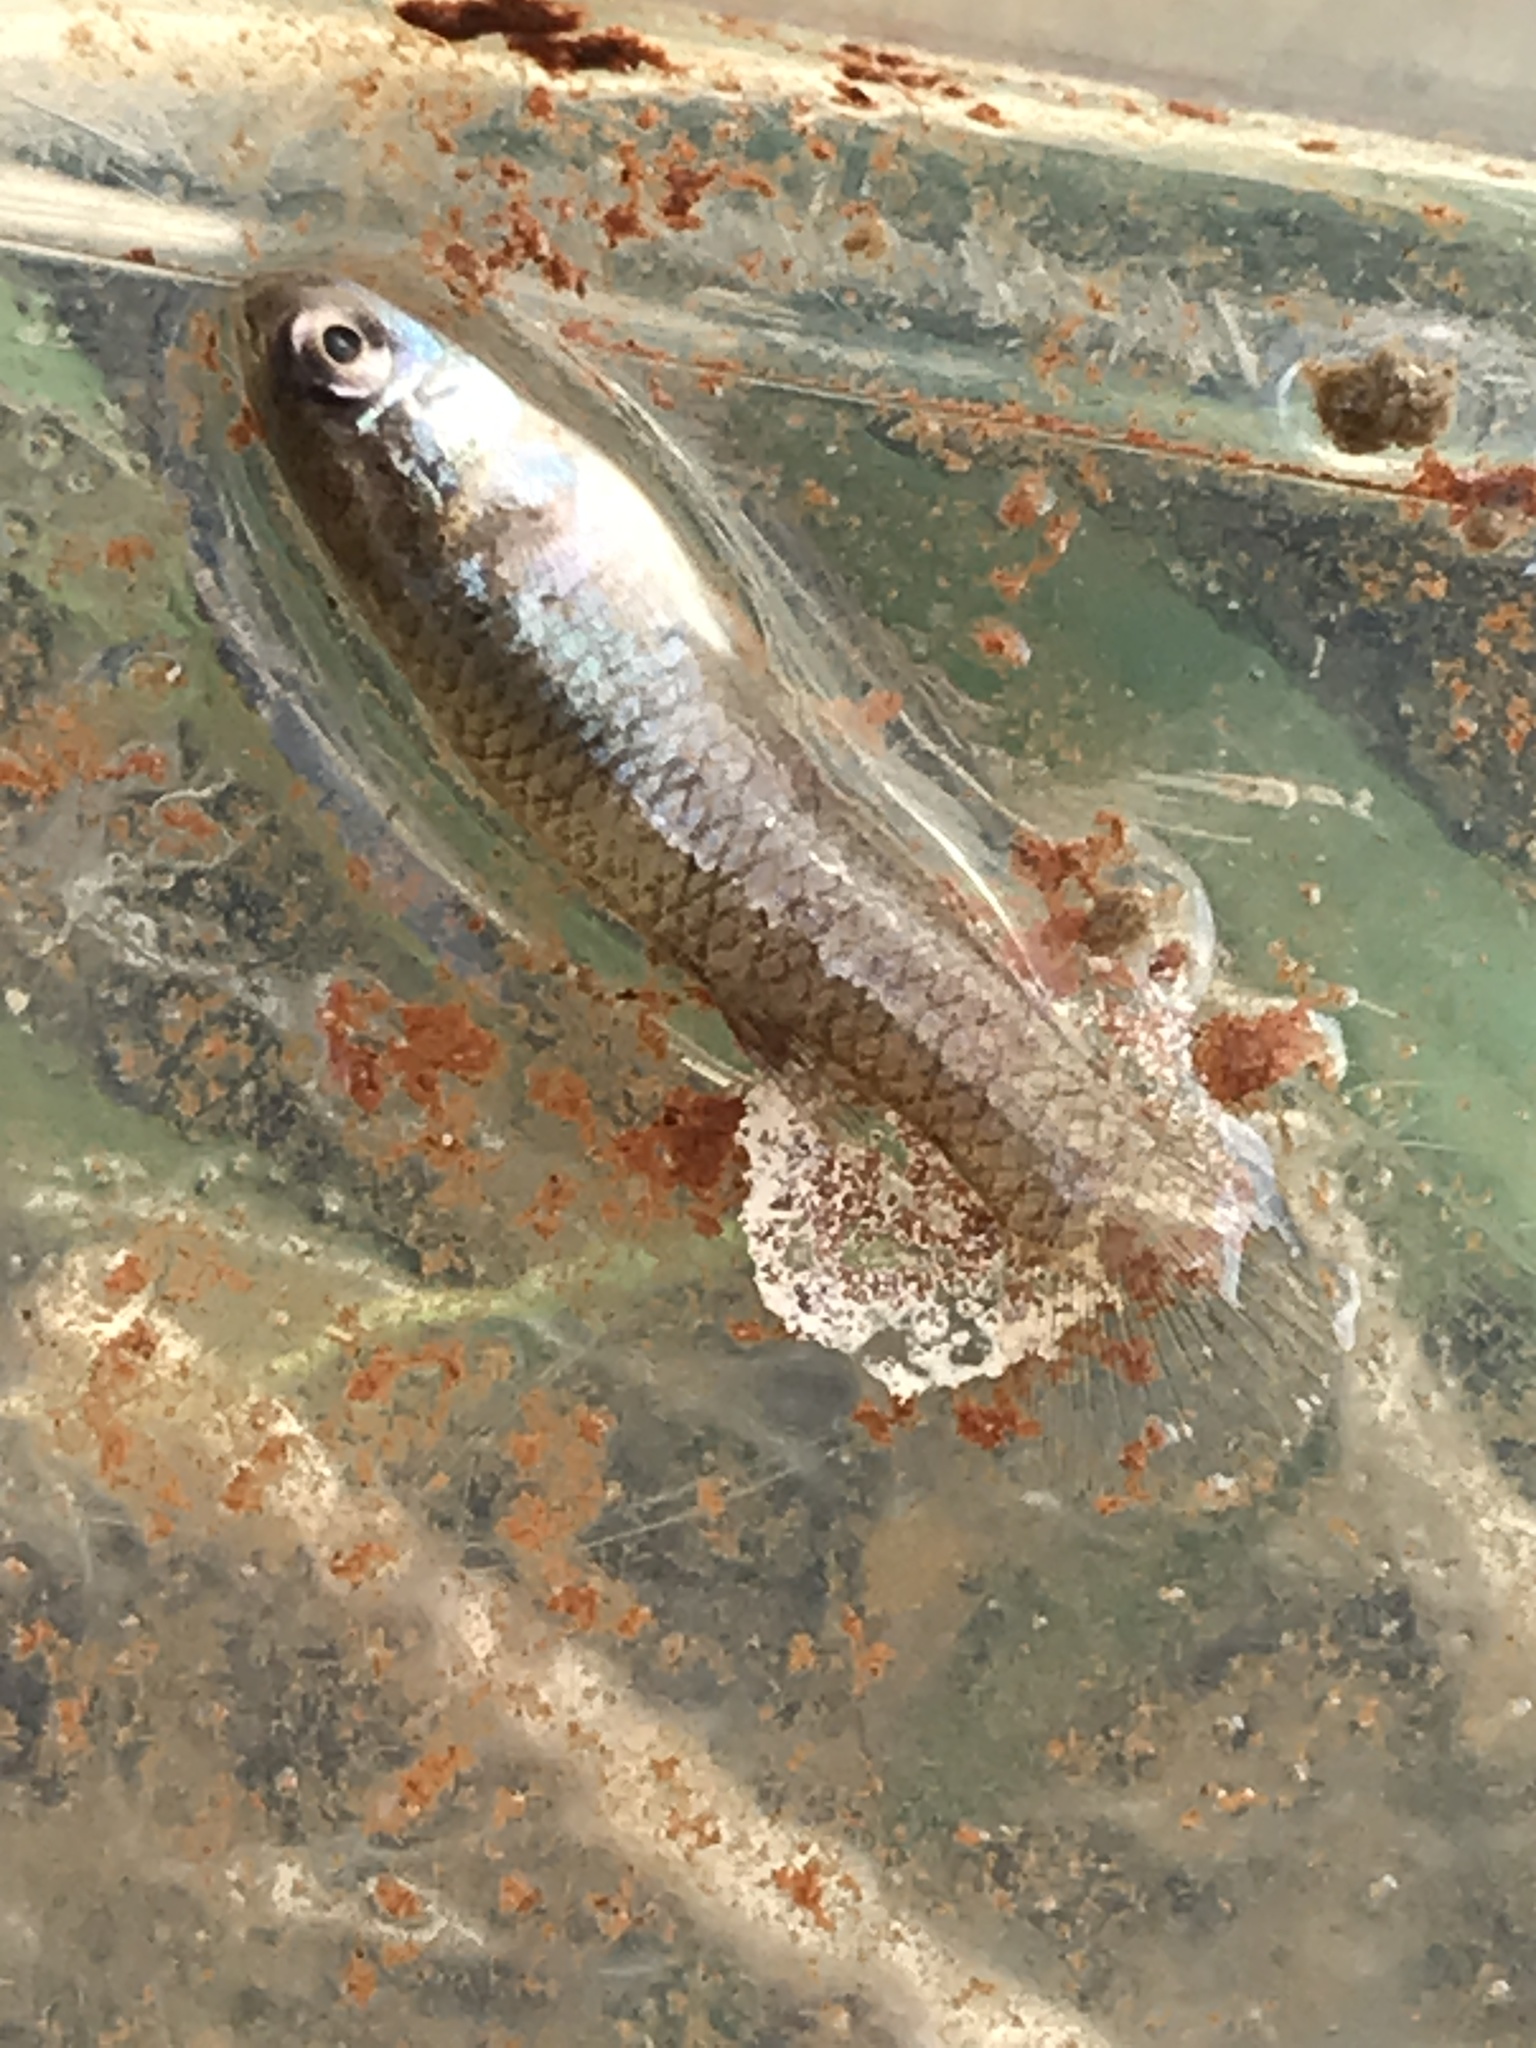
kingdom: Animalia
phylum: Chordata
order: Cyprinodontiformes
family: Poeciliidae
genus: Gambusia
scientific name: Gambusia affinis
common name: Mosquitofish
